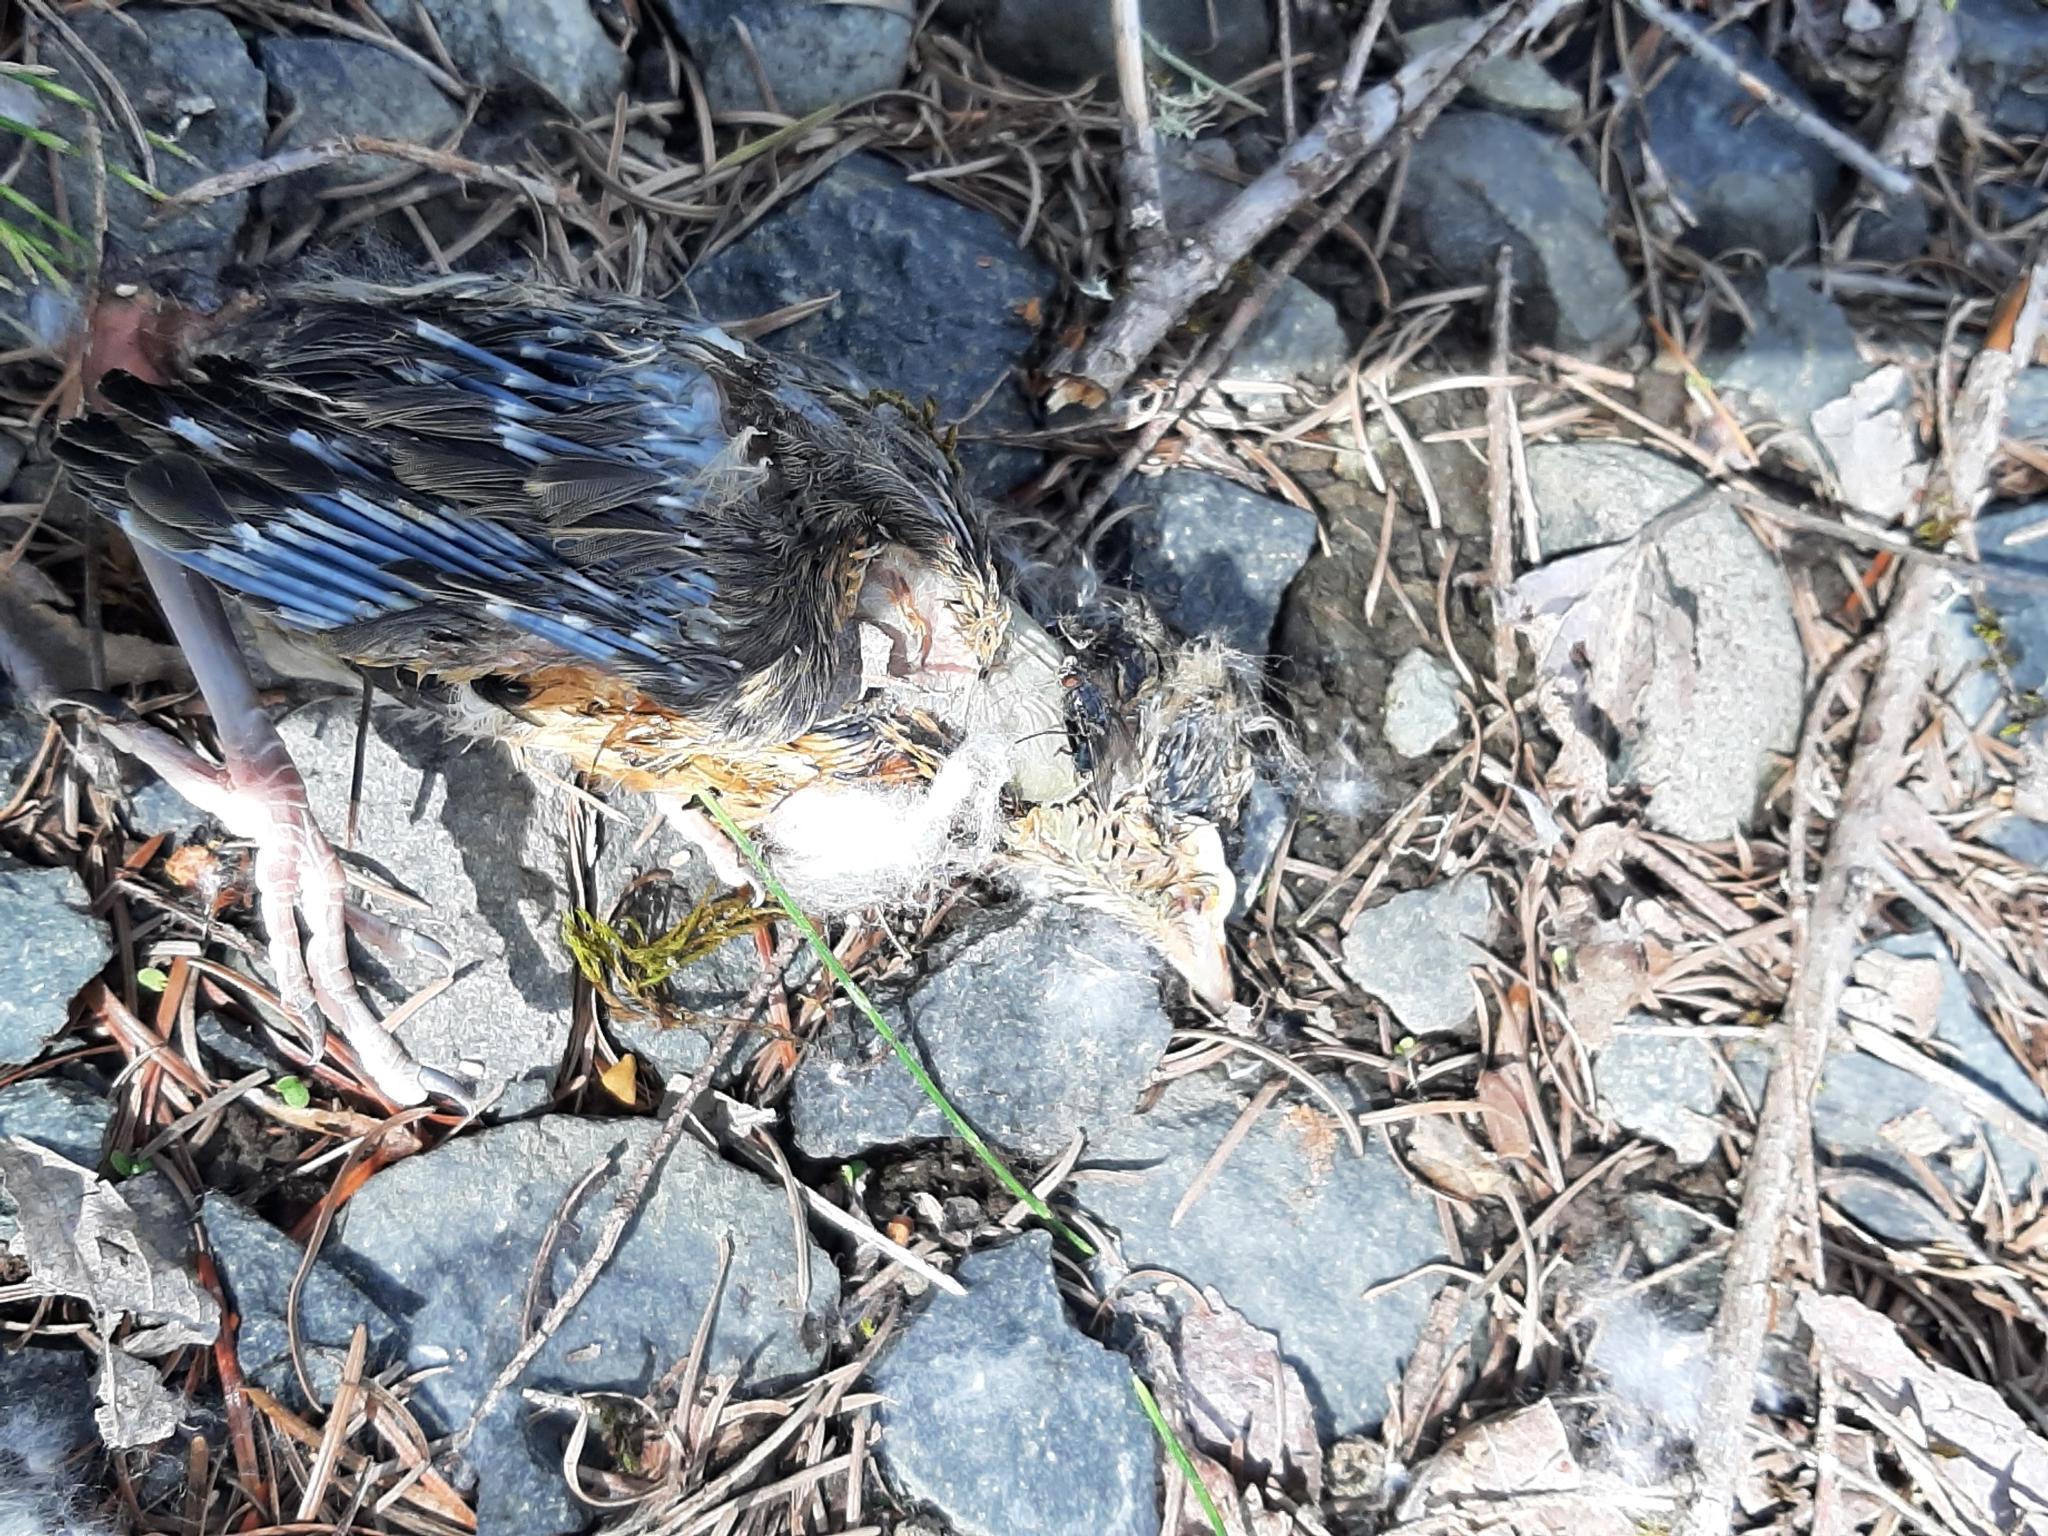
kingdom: Animalia
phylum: Chordata
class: Aves
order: Passeriformes
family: Turdidae
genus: Turdus
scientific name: Turdus migratorius
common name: American robin
